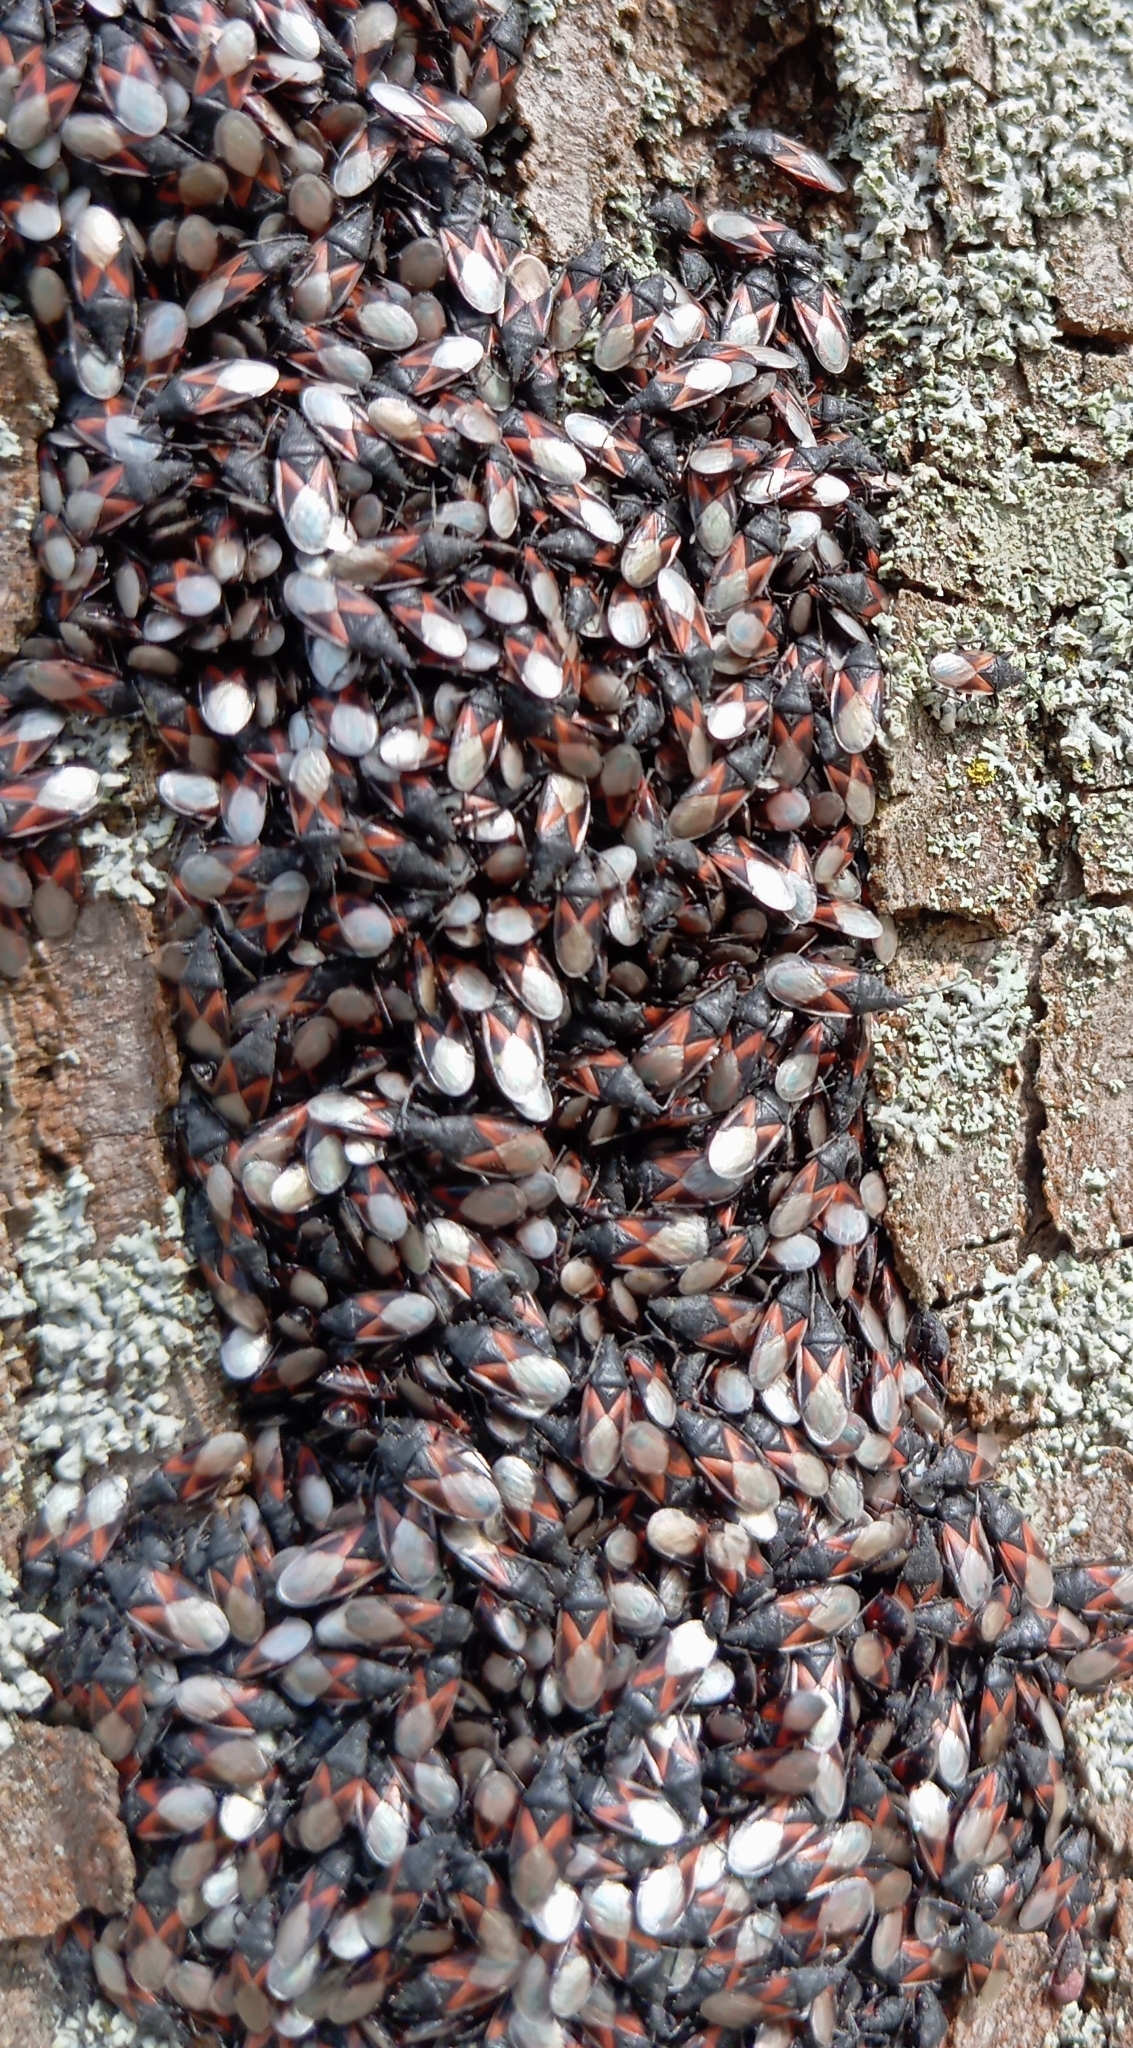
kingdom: Animalia
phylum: Arthropoda
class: Insecta
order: Hemiptera
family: Oxycarenidae
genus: Oxycarenus
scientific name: Oxycarenus lavaterae
